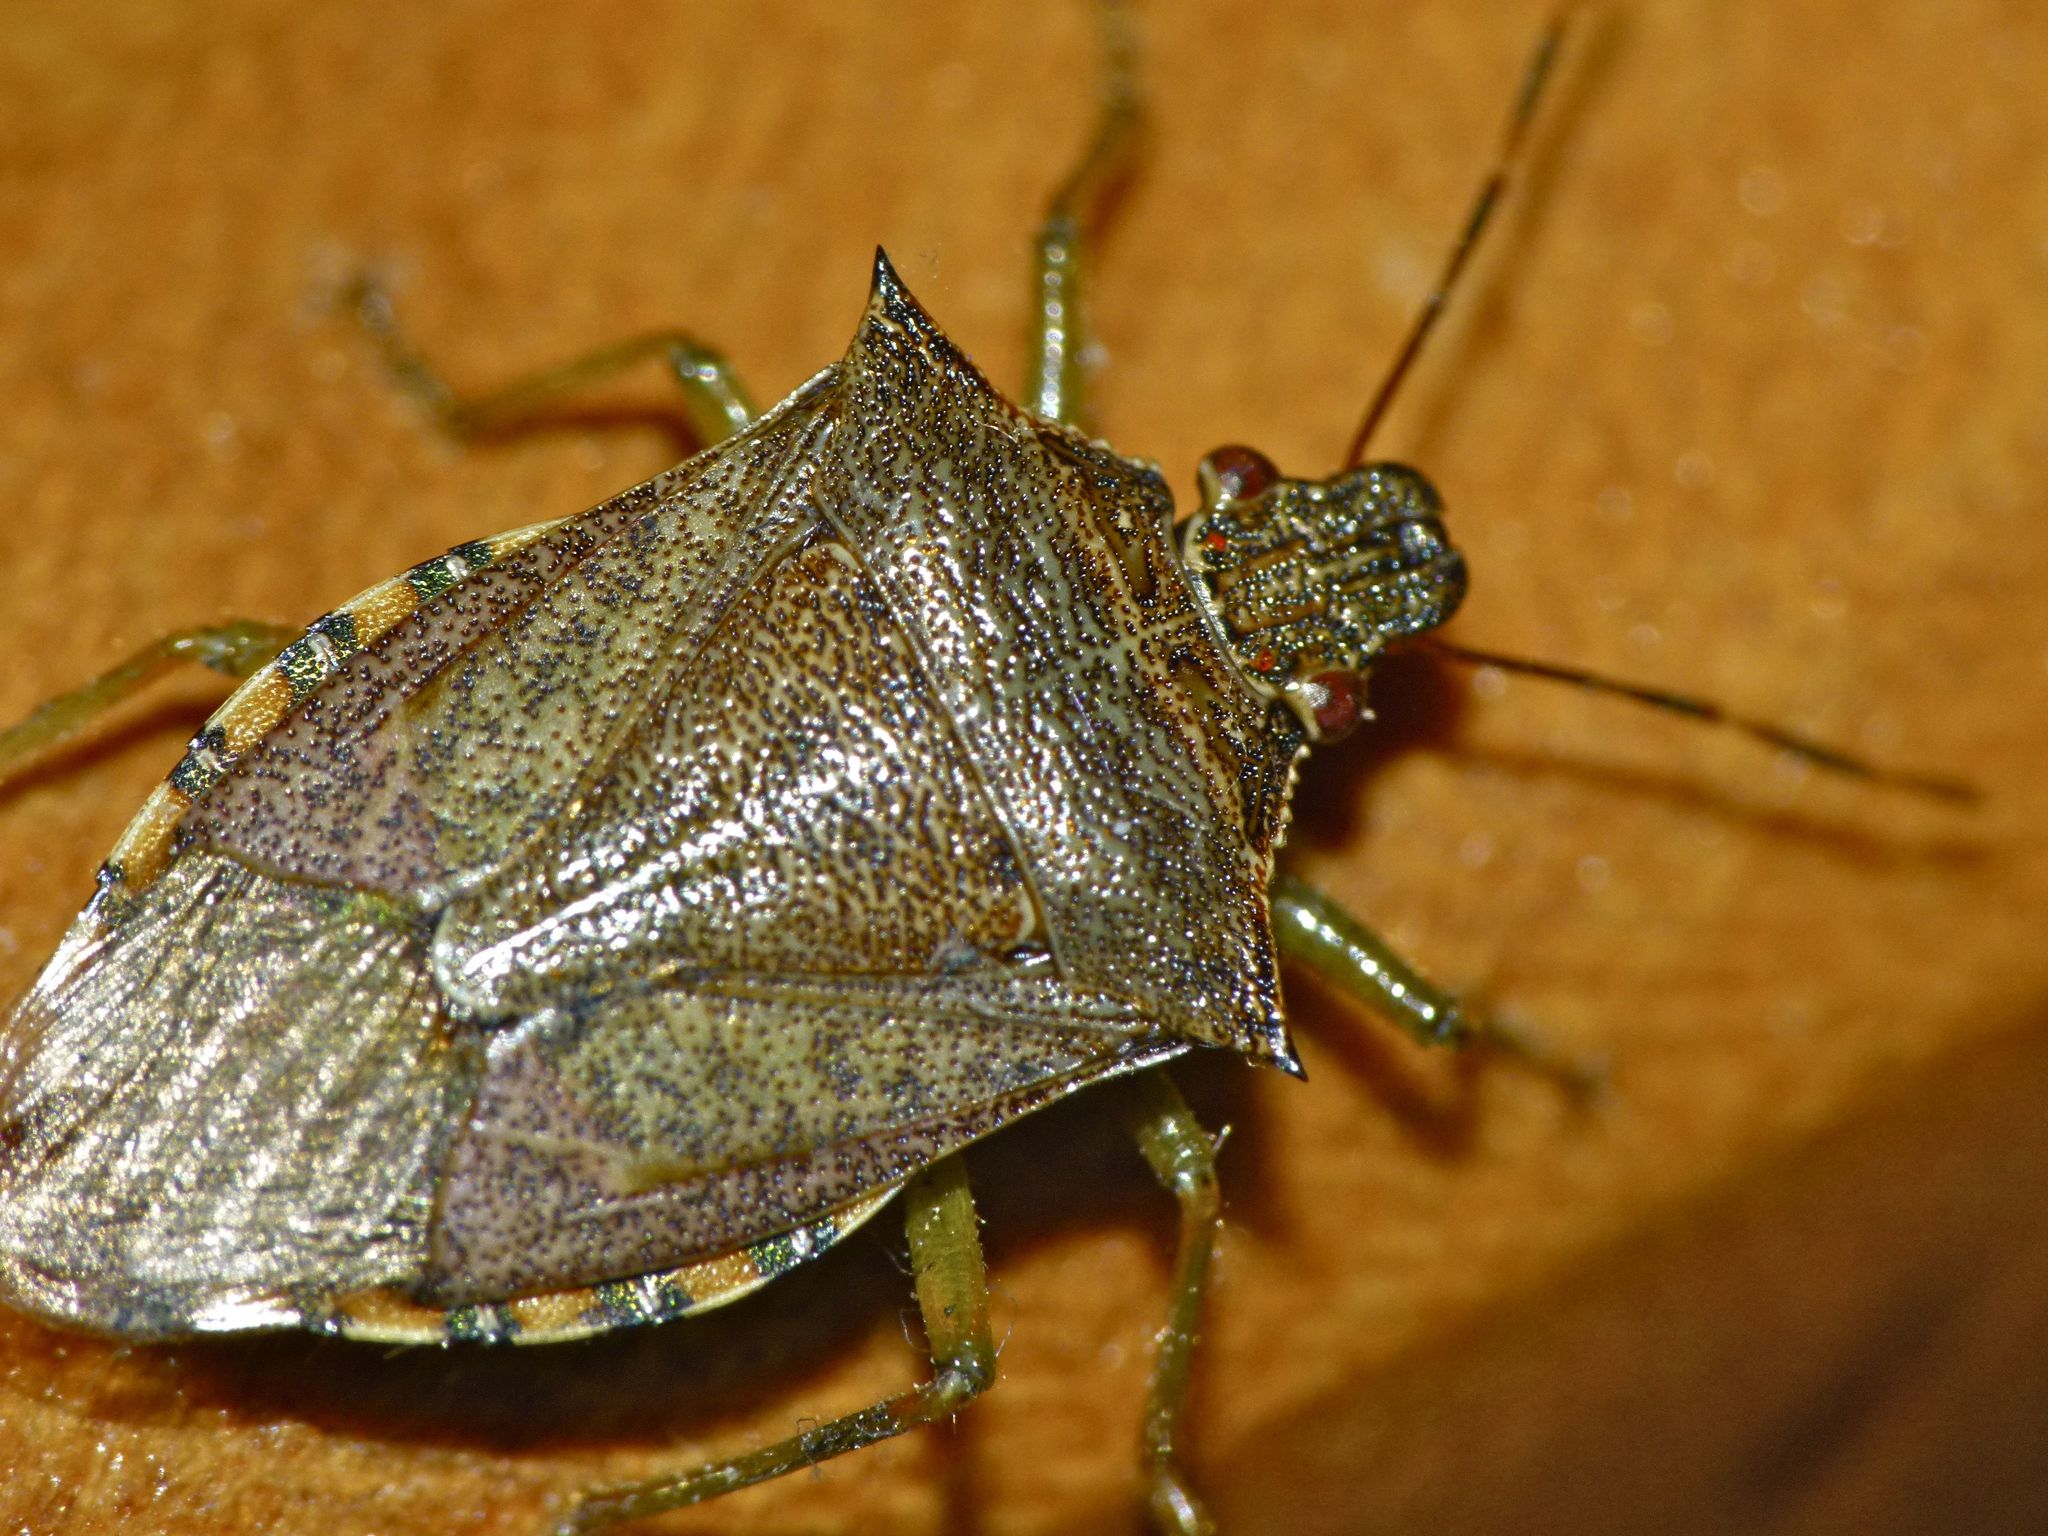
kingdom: Animalia
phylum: Arthropoda
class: Insecta
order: Hemiptera
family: Pentatomidae
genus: Podisus
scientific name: Podisus
